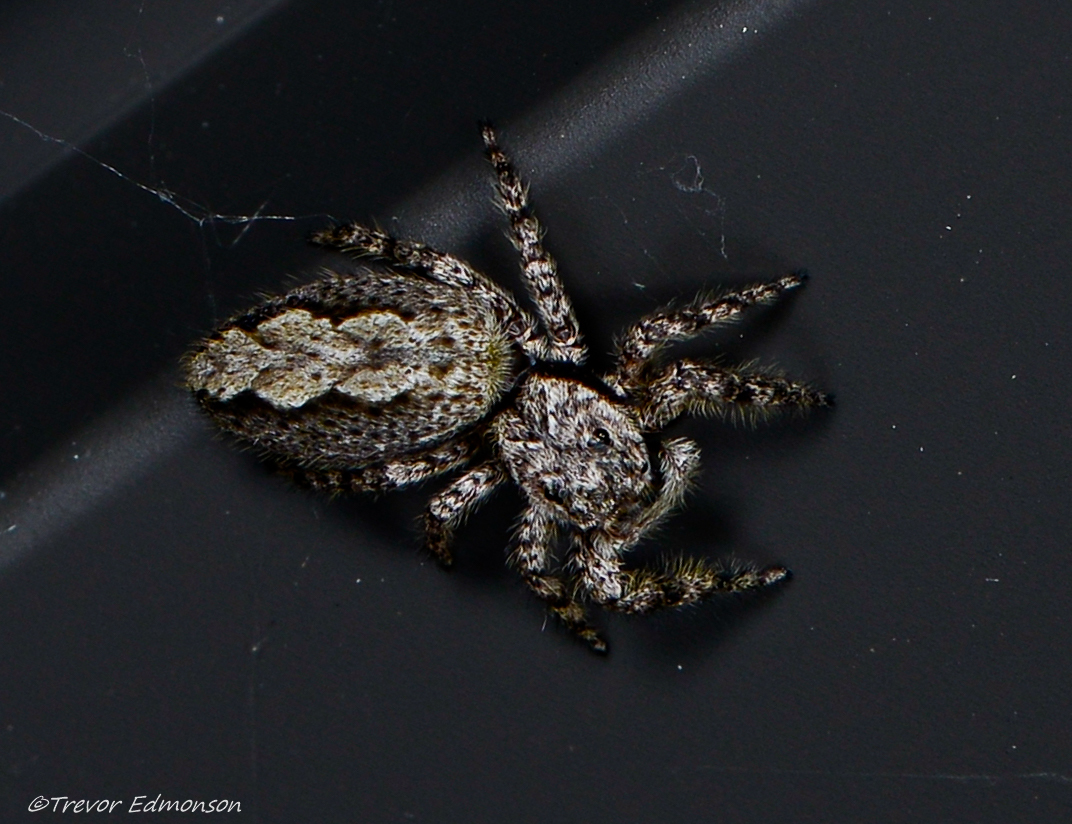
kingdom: Animalia
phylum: Arthropoda
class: Arachnida
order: Araneae
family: Salticidae
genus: Platycryptus
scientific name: Platycryptus undatus
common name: Tan jumping spider
